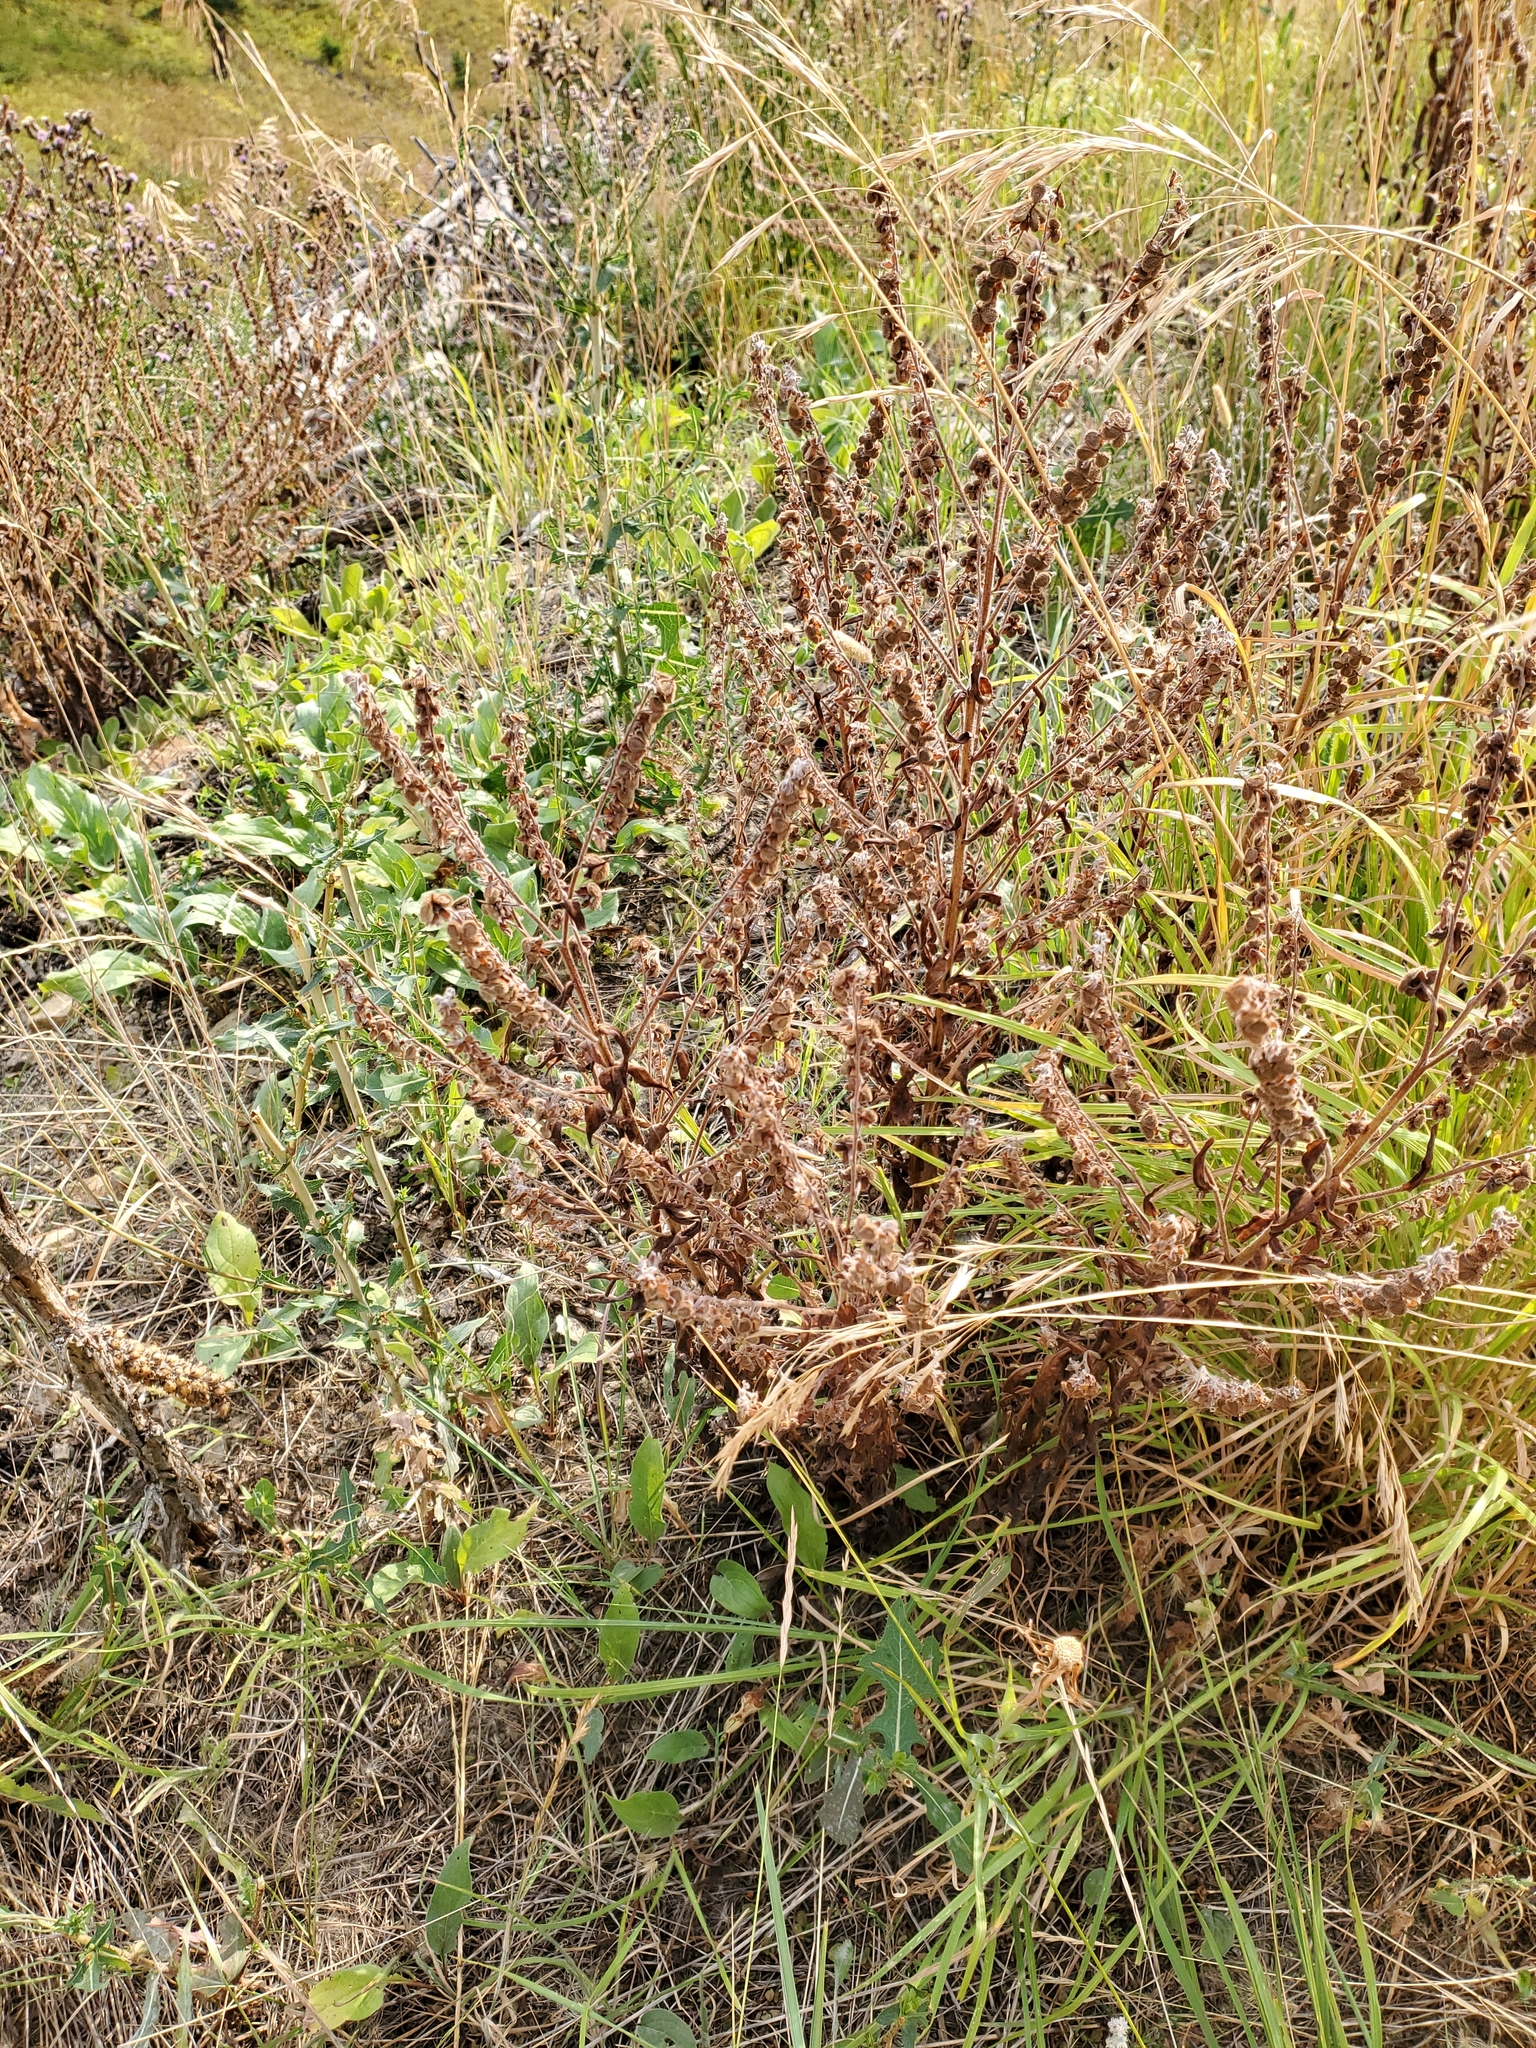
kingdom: Plantae
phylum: Tracheophyta
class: Magnoliopsida
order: Boraginales
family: Boraginaceae
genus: Cynoglossum
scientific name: Cynoglossum officinale
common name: Hound's-tongue
